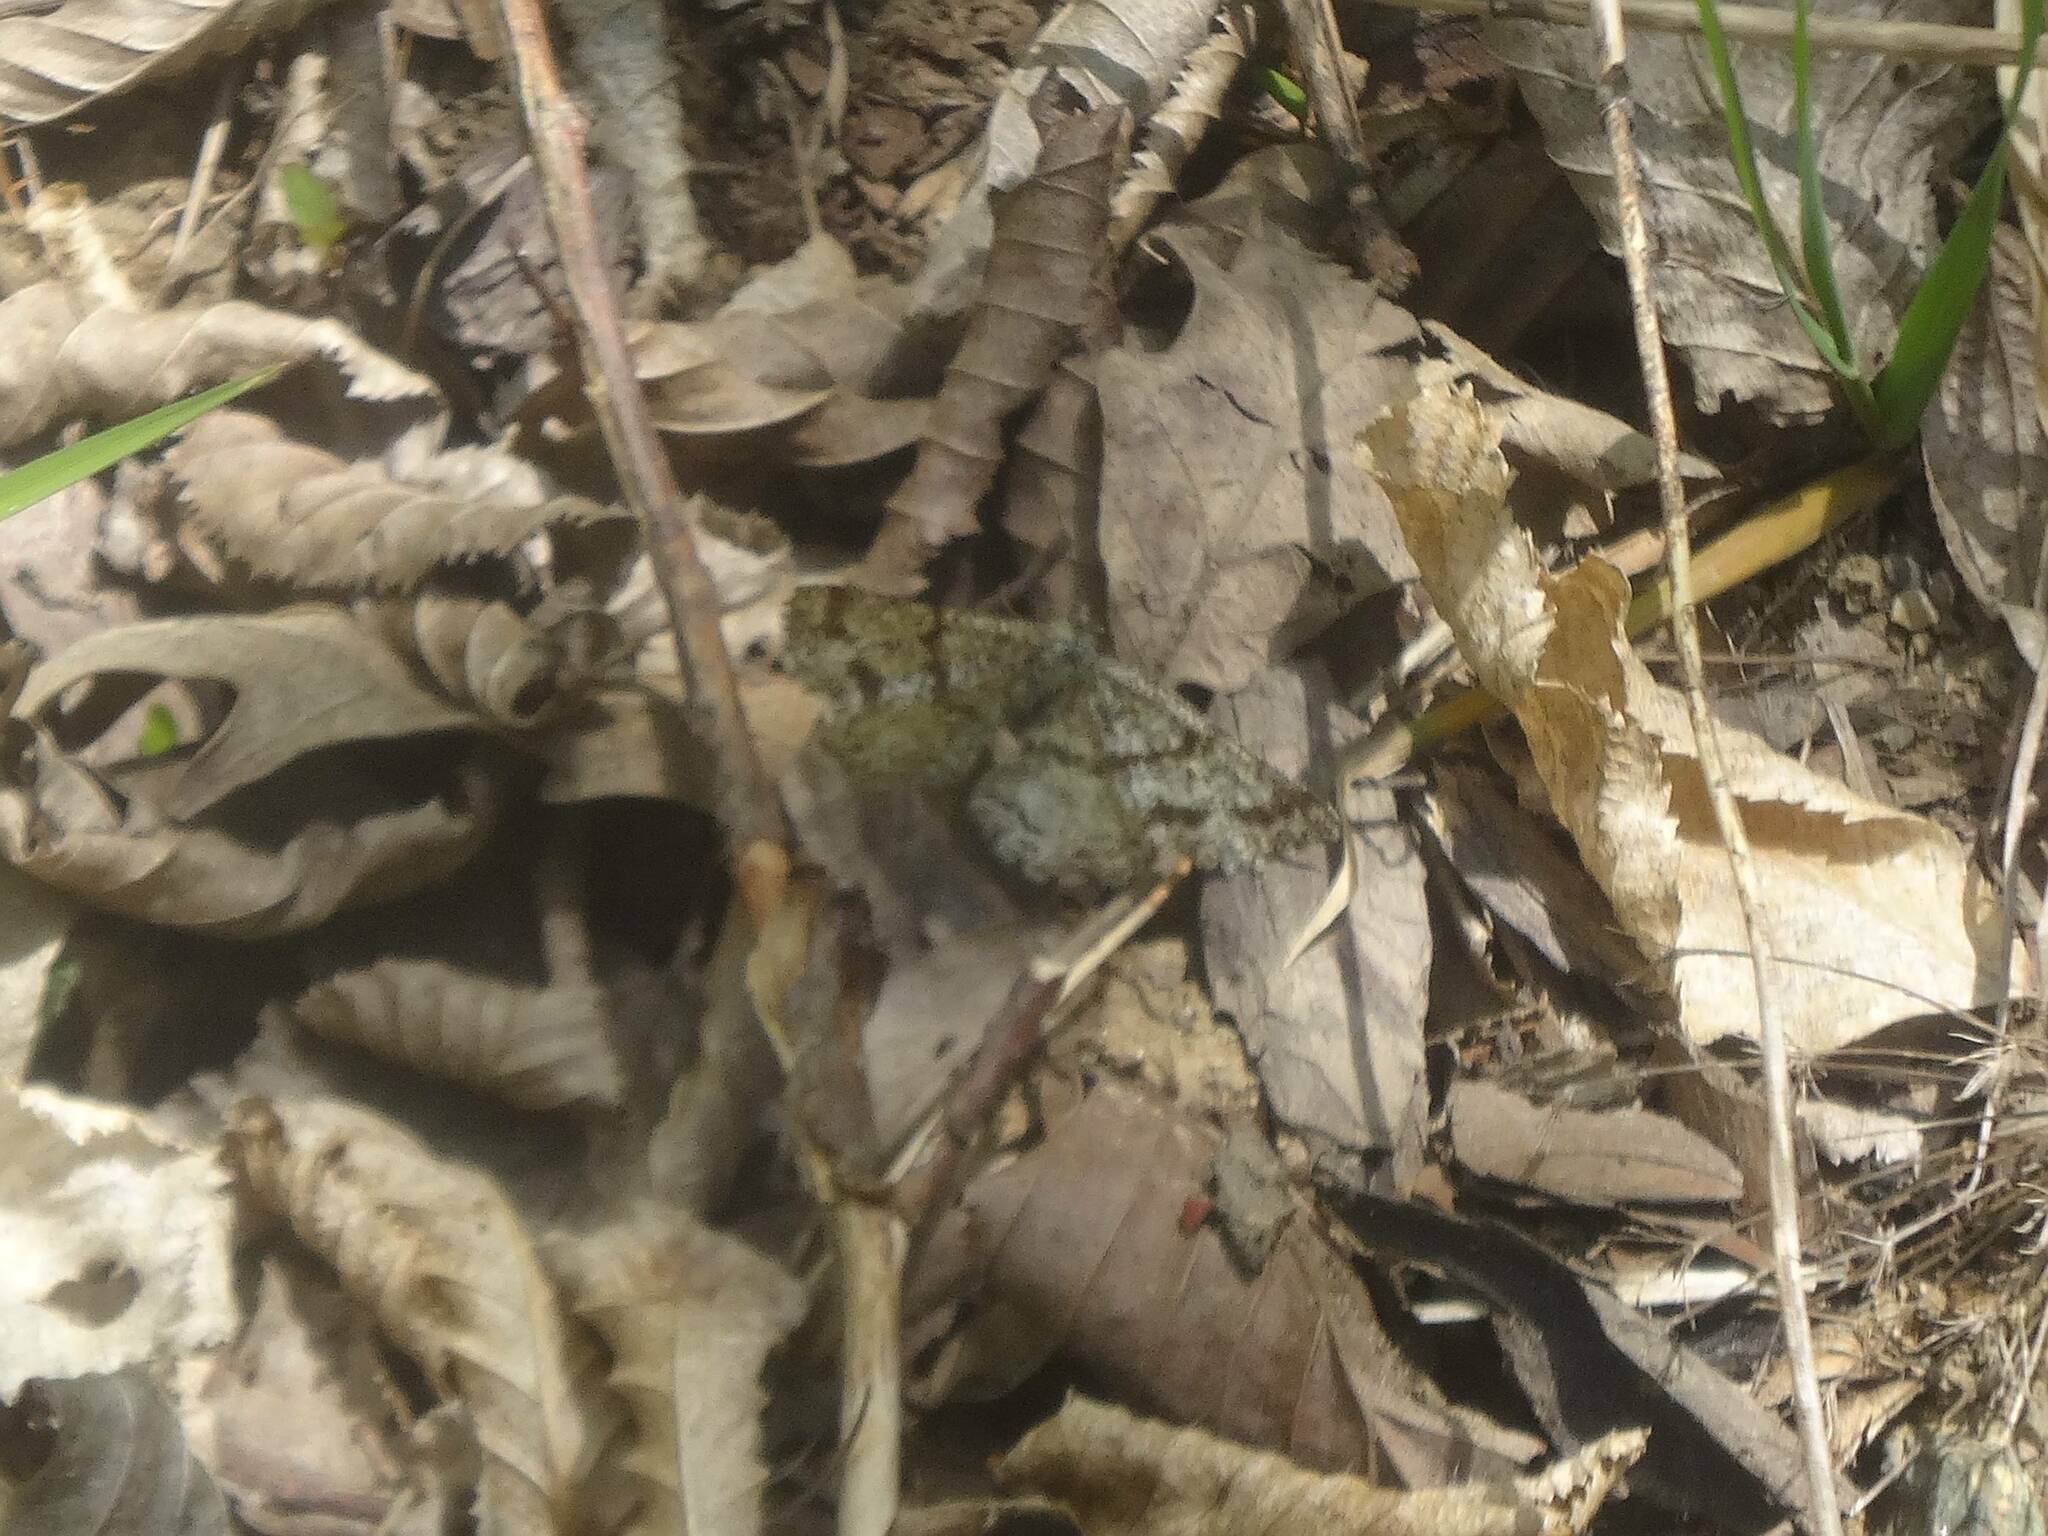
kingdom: Animalia
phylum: Arthropoda
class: Insecta
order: Lepidoptera
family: Geometridae
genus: Ematurga
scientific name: Ematurga atomaria
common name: Common heath
